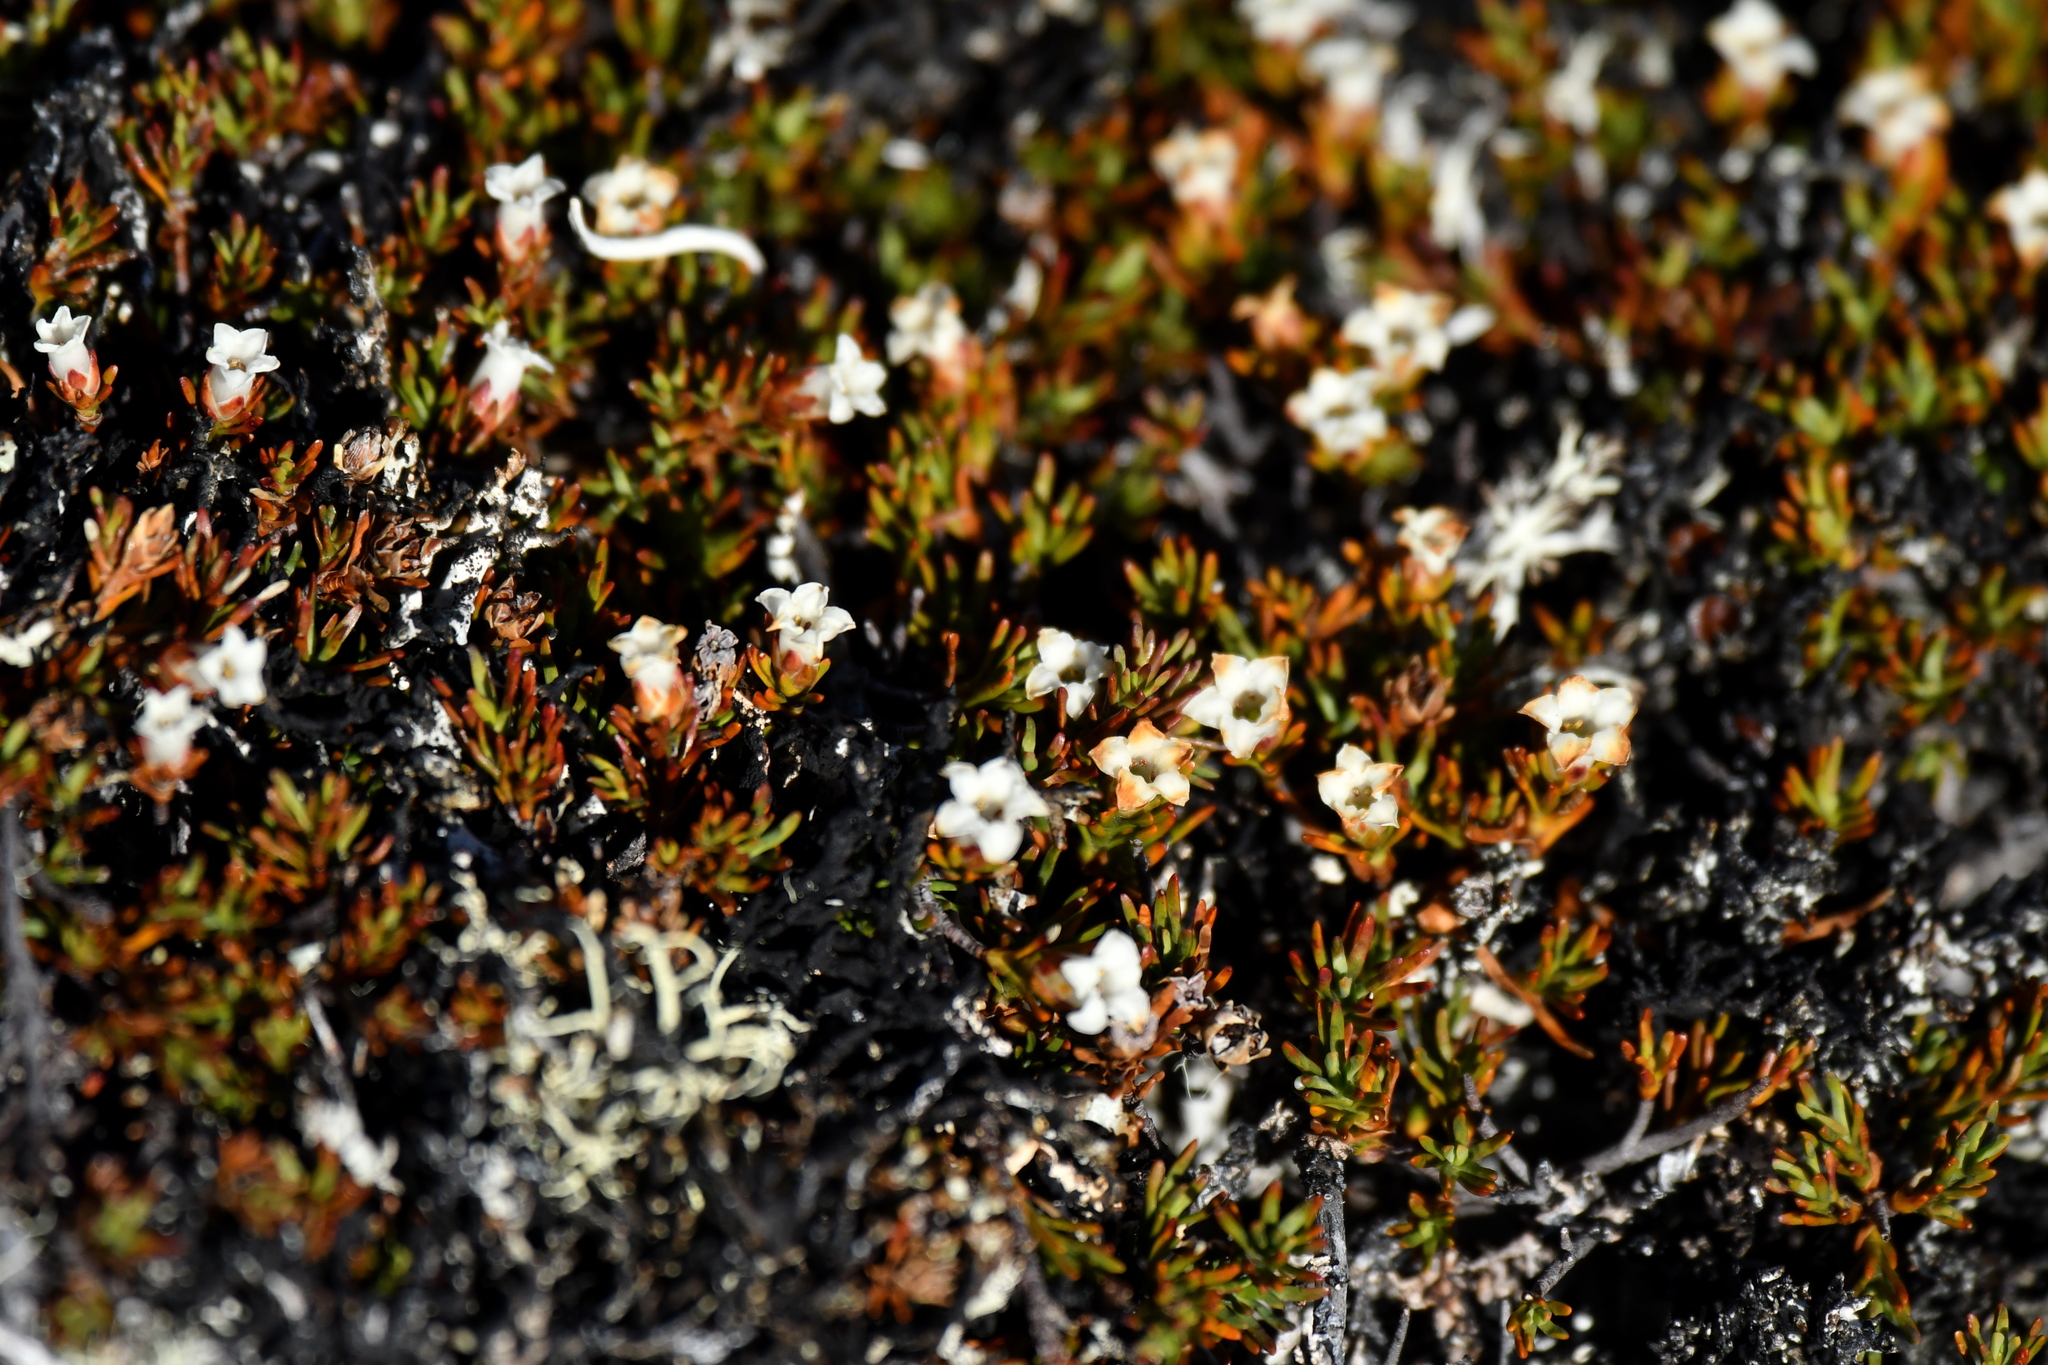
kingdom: Plantae
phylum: Tracheophyta
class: Magnoliopsida
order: Ericales
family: Ericaceae
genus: Dracophyllum
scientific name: Dracophyllum pronum
